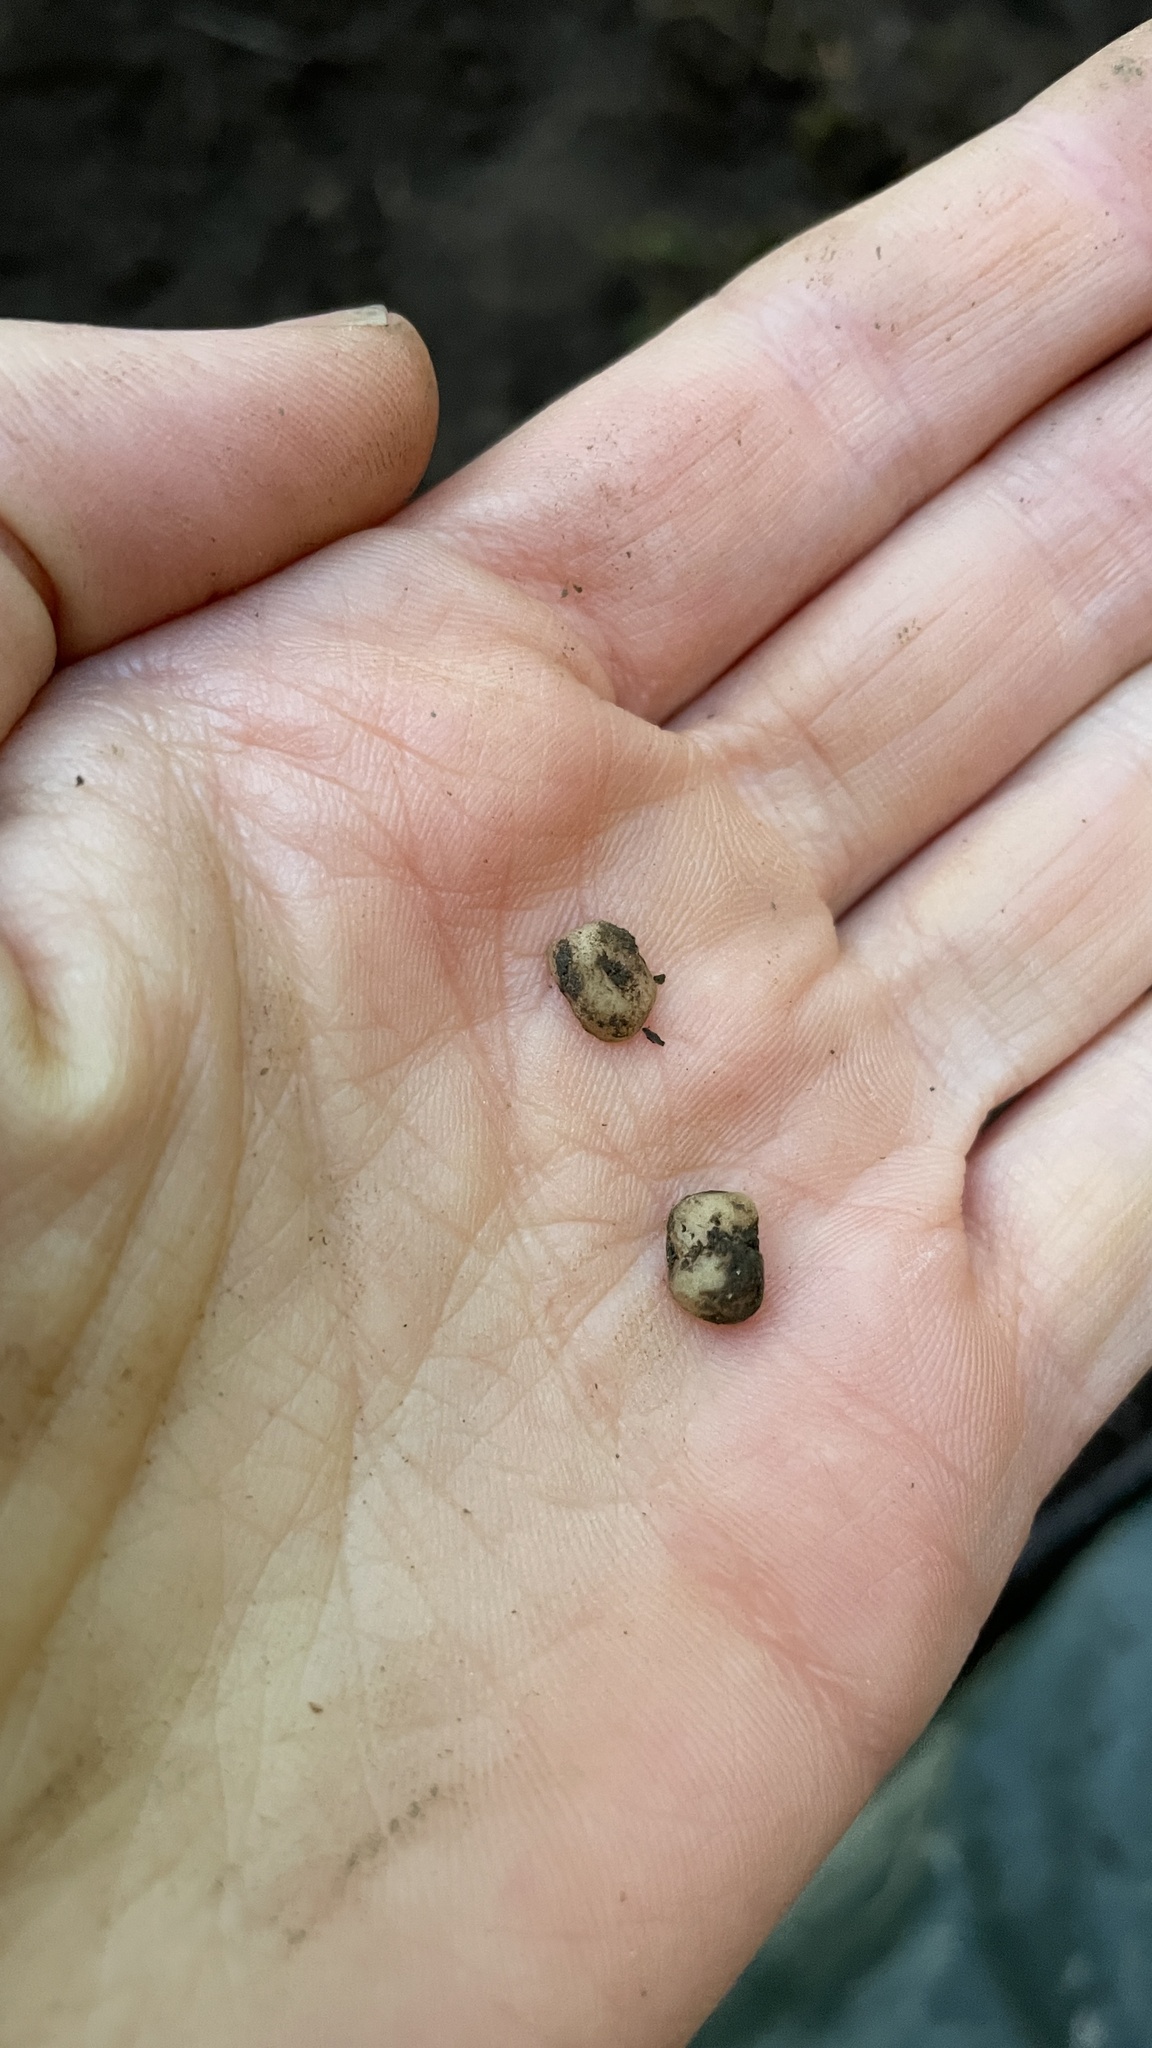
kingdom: Fungi
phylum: Ascomycota
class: Pezizomycetes
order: Pezizales
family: Helvellaceae
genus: Balsamia
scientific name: Balsamia oregonensis
